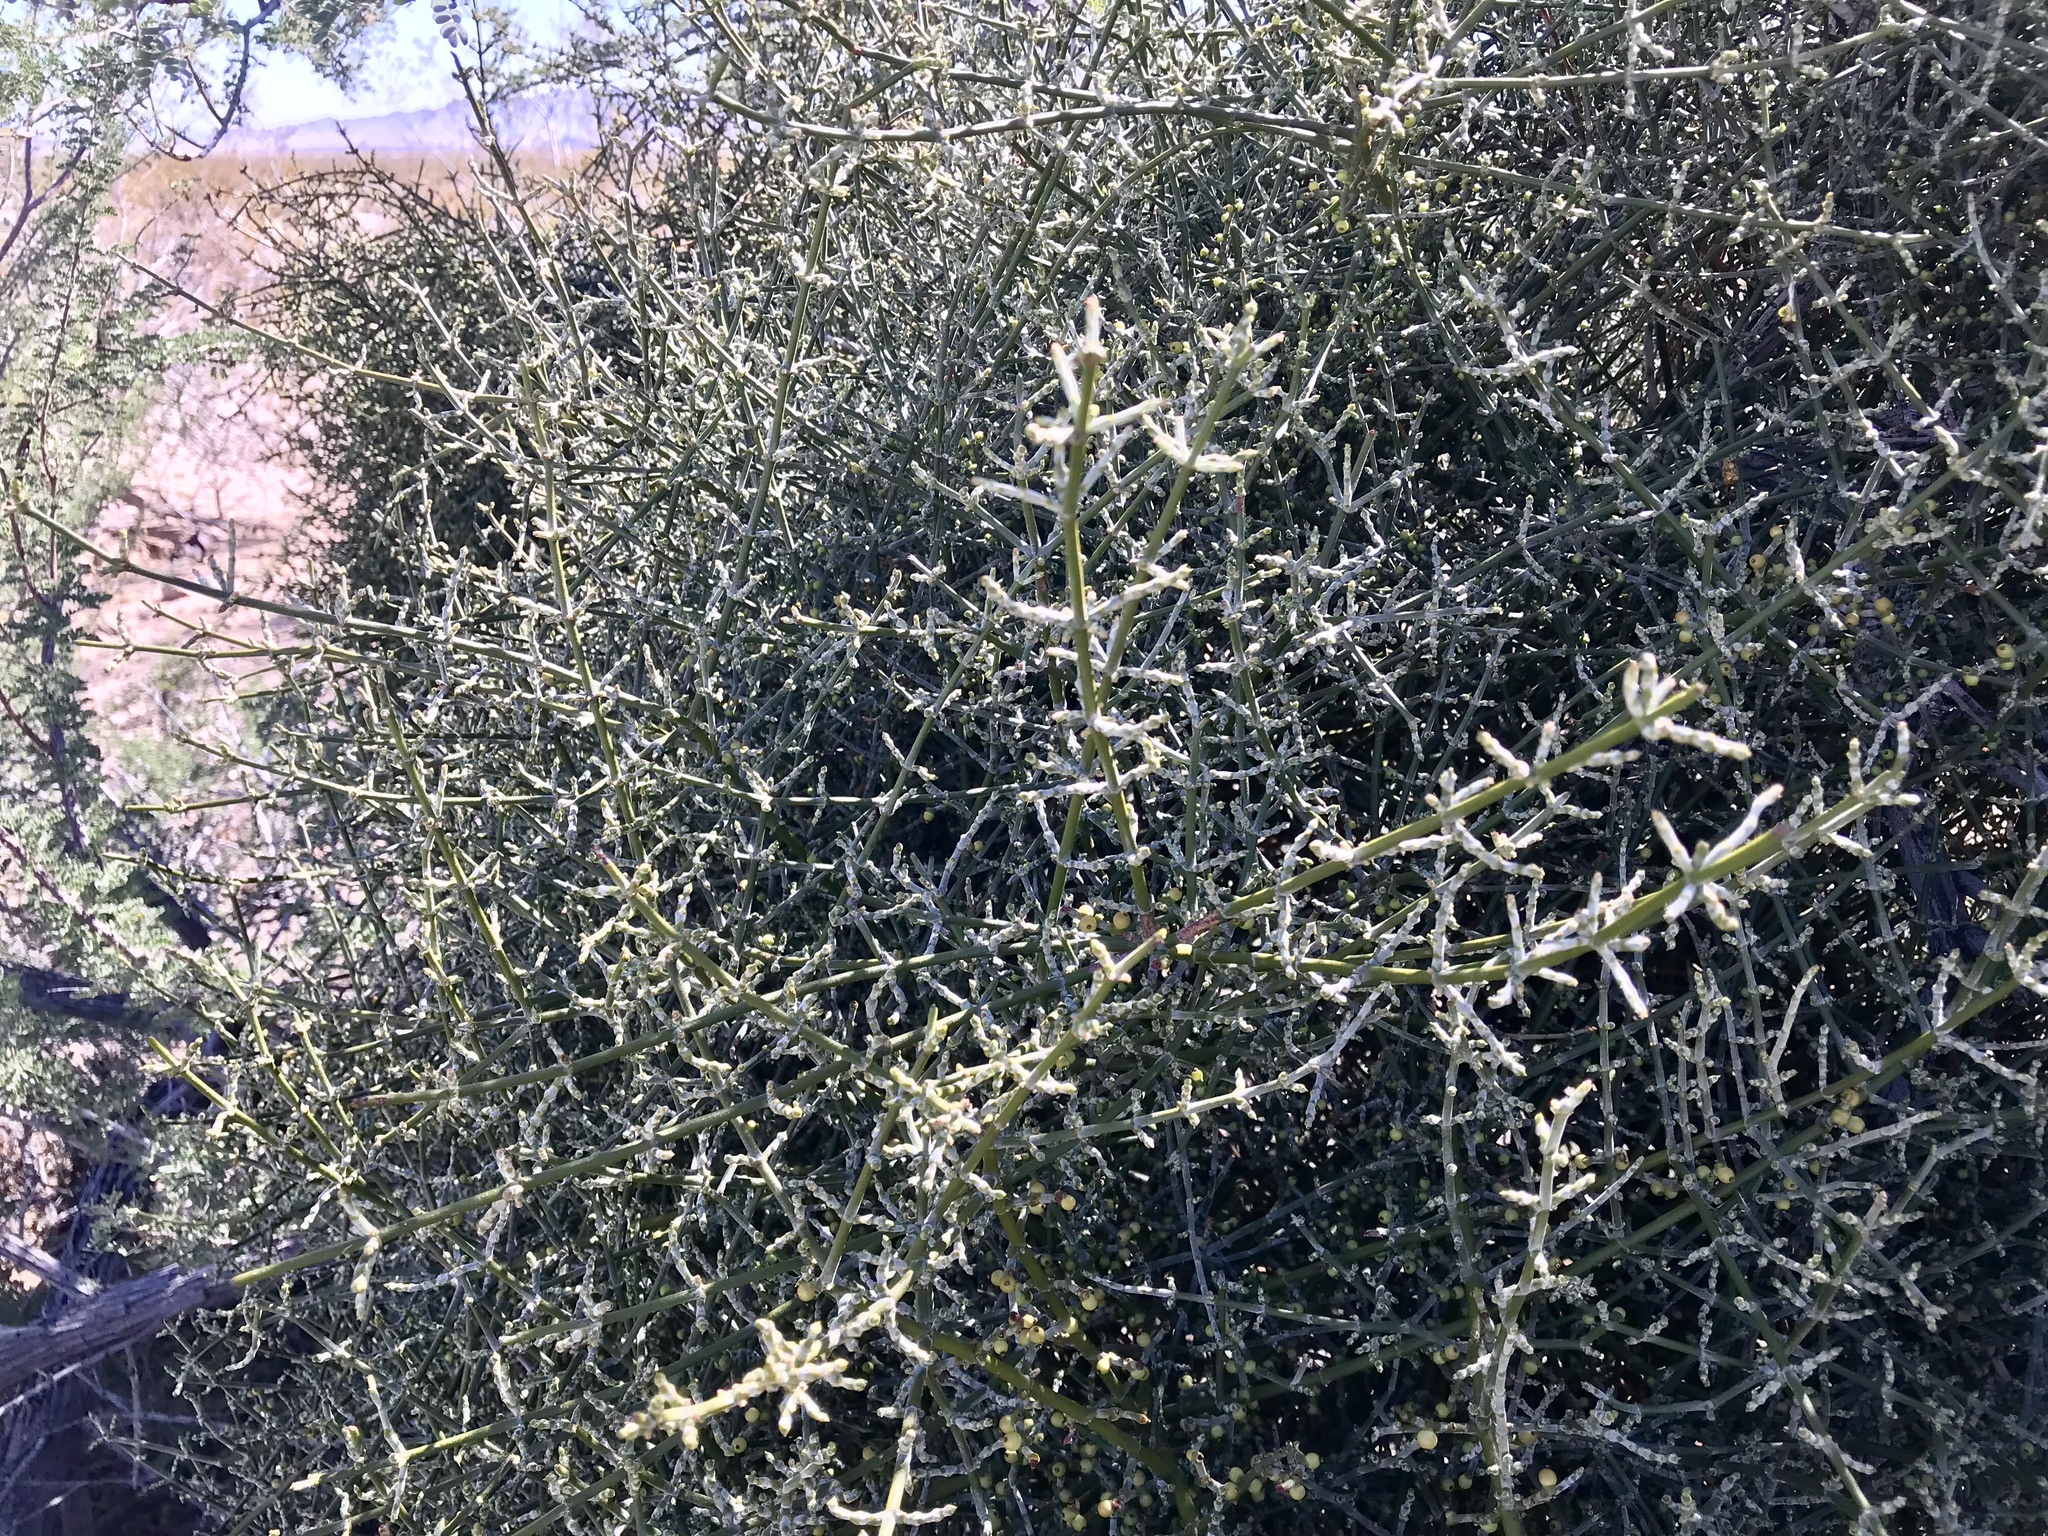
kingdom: Plantae
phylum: Tracheophyta
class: Magnoliopsida
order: Santalales
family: Viscaceae
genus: Phoradendron
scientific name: Phoradendron californicum
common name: Acacia mistletoe
